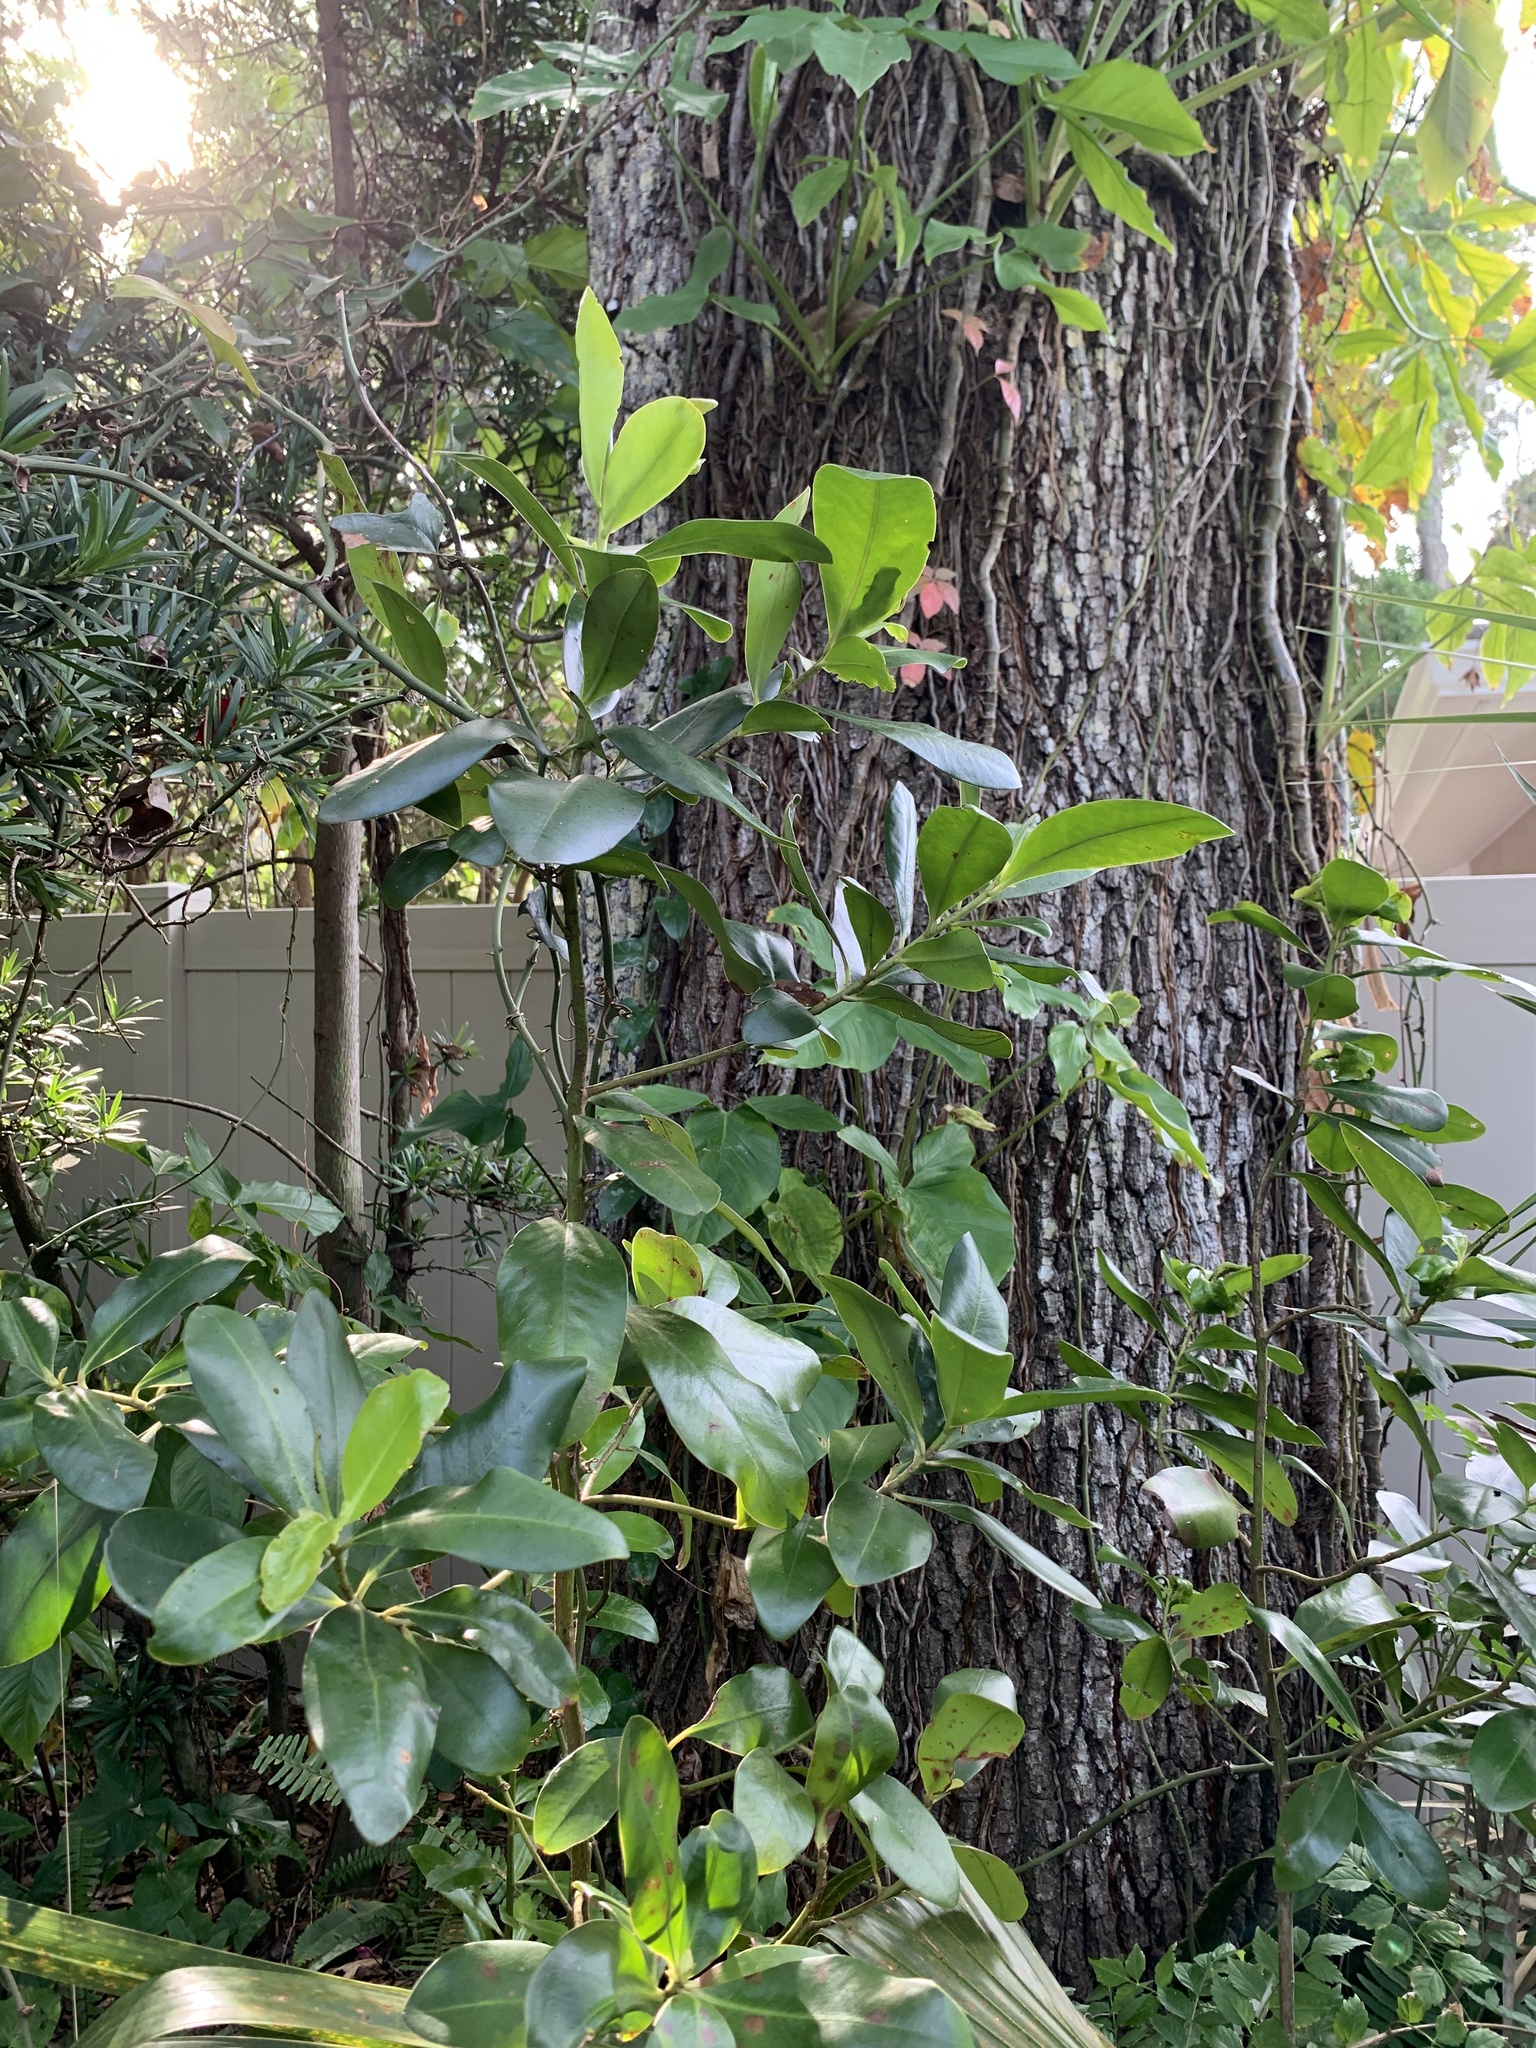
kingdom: Plantae
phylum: Tracheophyta
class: Magnoliopsida
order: Ericales
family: Primulaceae
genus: Myrsine
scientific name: Myrsine floridana
